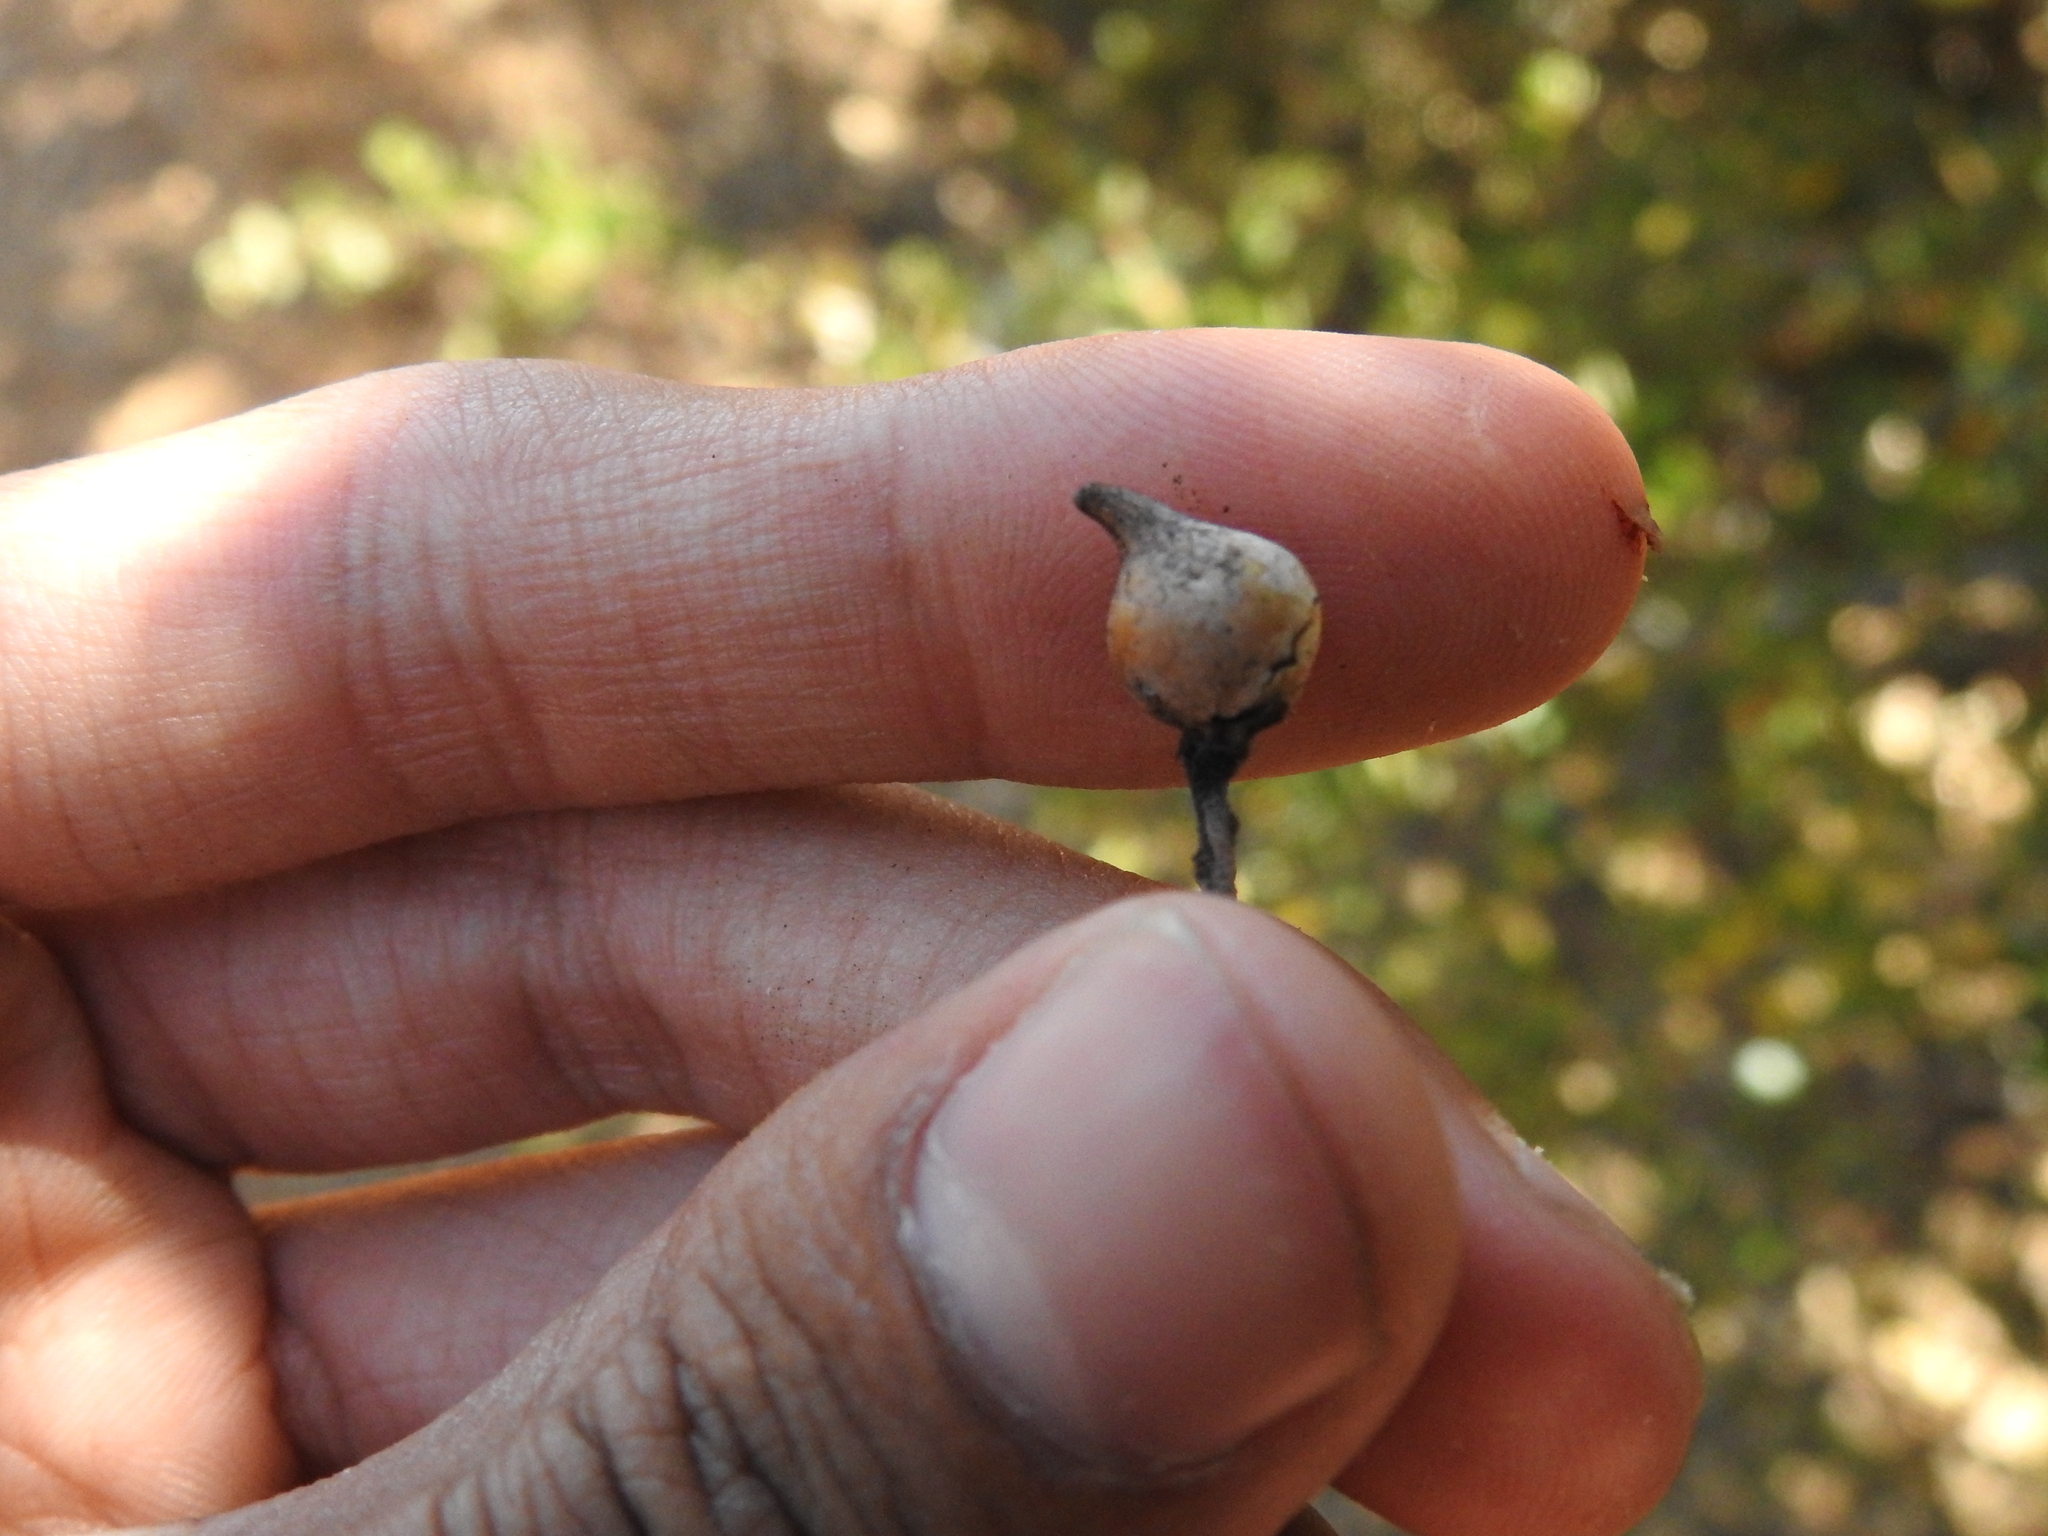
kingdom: Animalia
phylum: Arthropoda
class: Insecta
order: Hymenoptera
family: Cynipidae
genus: Heteroecus
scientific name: Heteroecus
